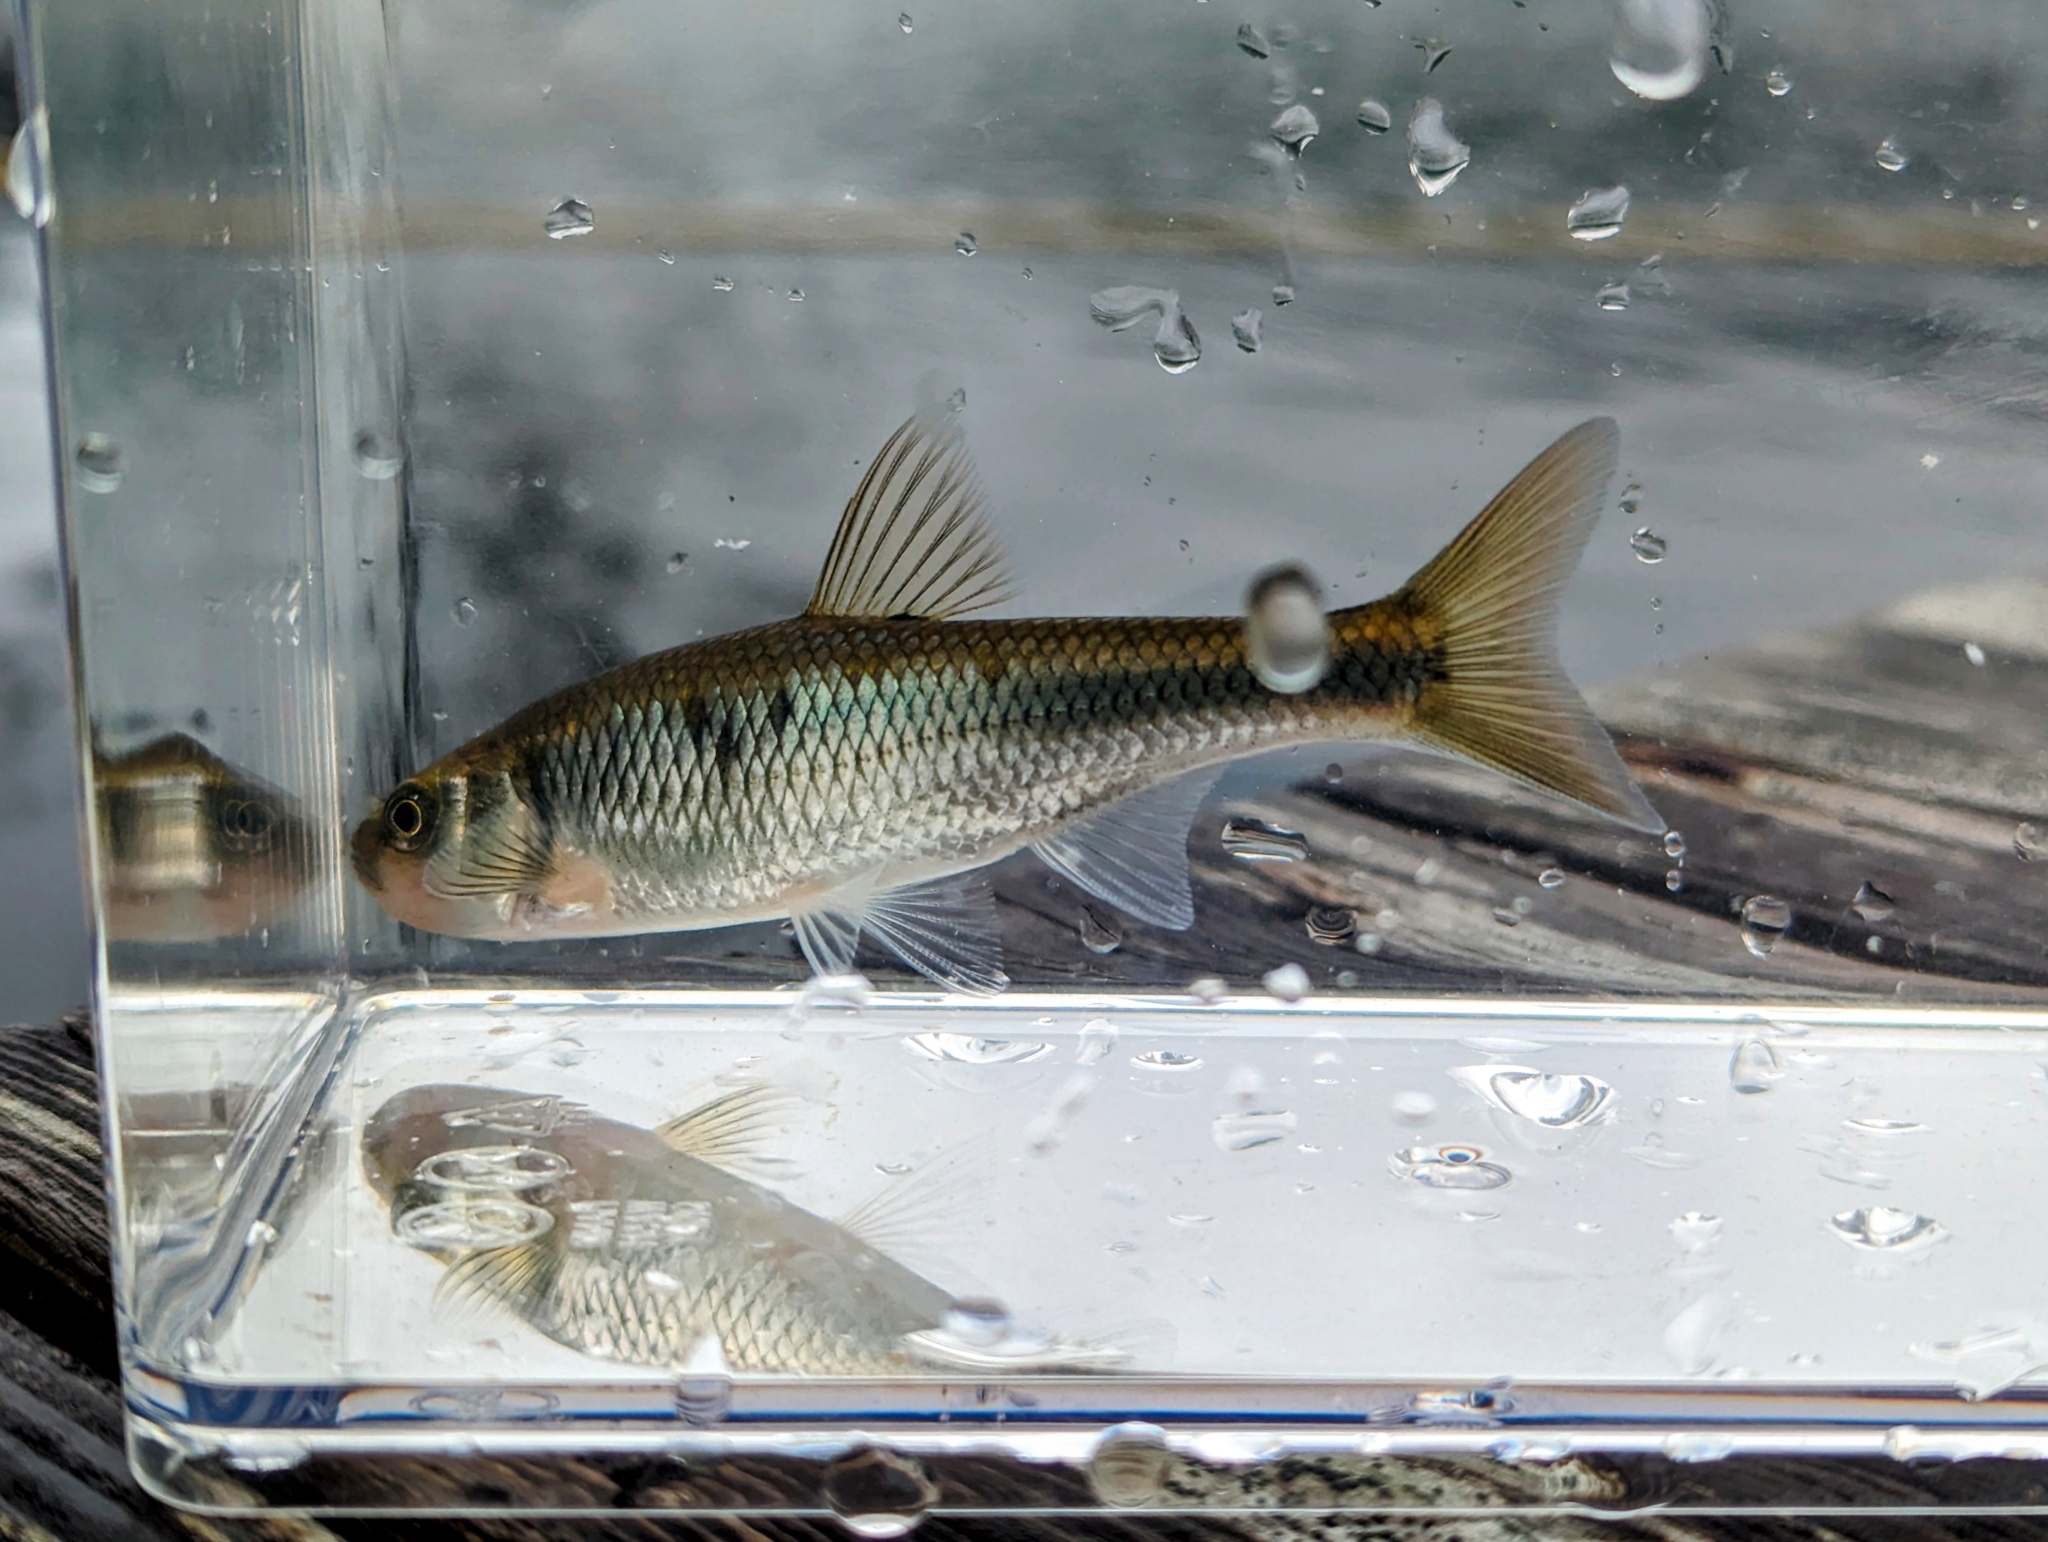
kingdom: Animalia
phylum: Chordata
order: Cypriniformes
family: Cyprinidae
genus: Luxilus
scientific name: Luxilus cornutus
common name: Common shiner
